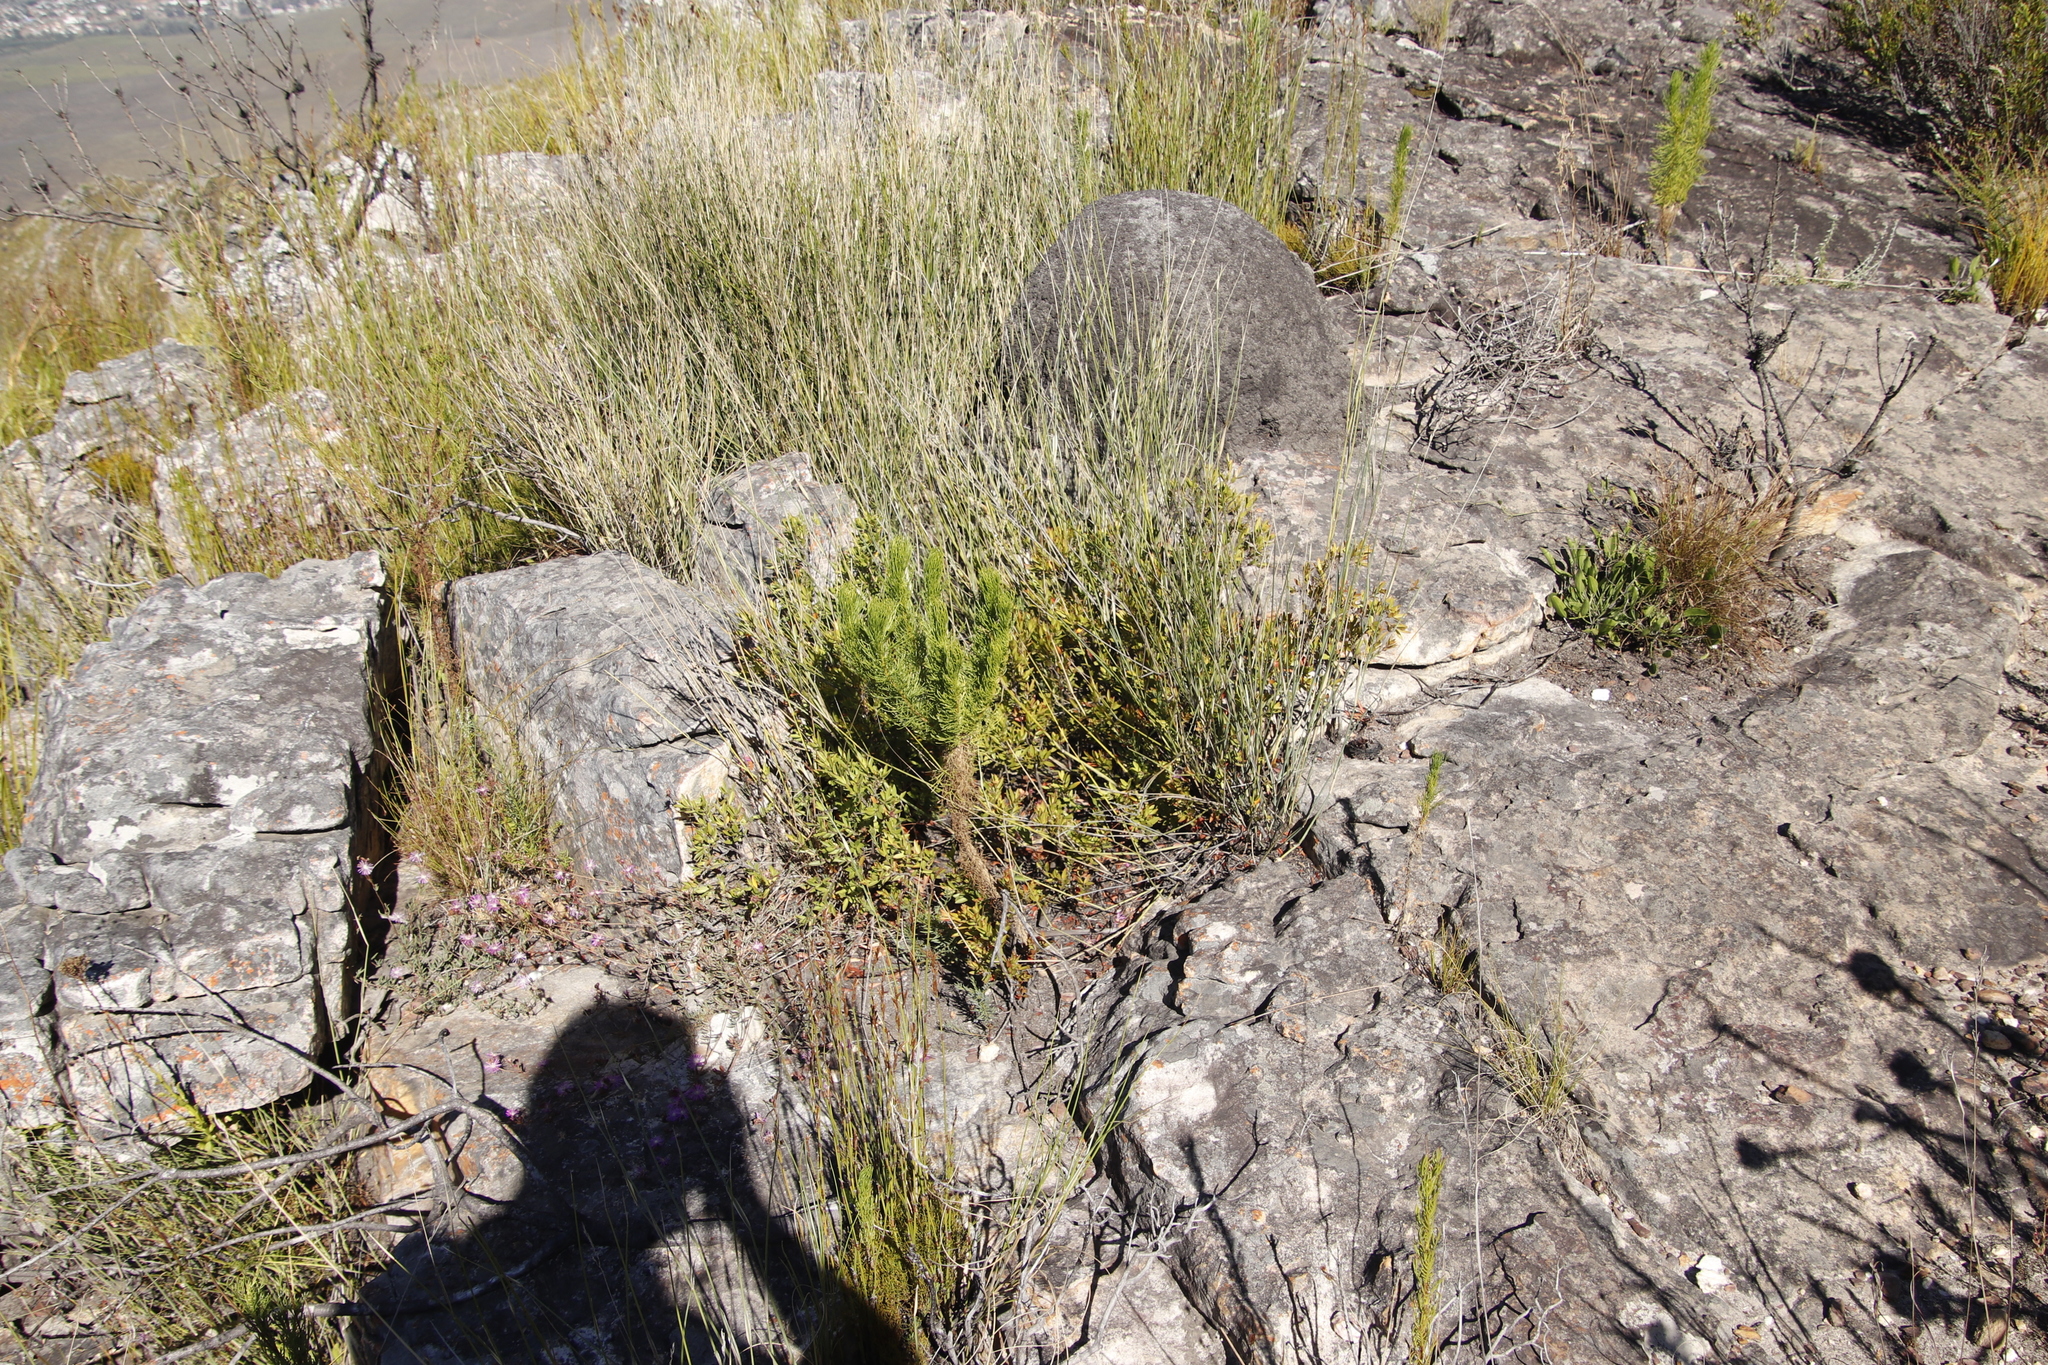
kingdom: Plantae
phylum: Tracheophyta
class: Magnoliopsida
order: Ericales
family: Ebenaceae
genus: Diospyros
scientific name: Diospyros glabra
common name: Fynbos star apple
